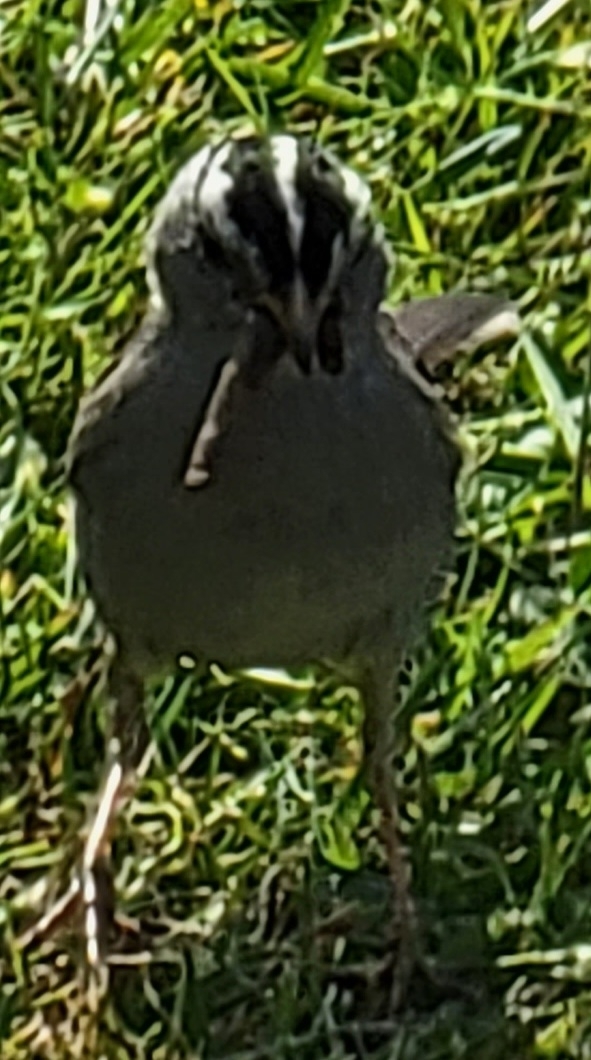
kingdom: Animalia
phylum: Chordata
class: Aves
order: Passeriformes
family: Passerellidae
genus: Zonotrichia
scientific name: Zonotrichia leucophrys
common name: White-crowned sparrow
